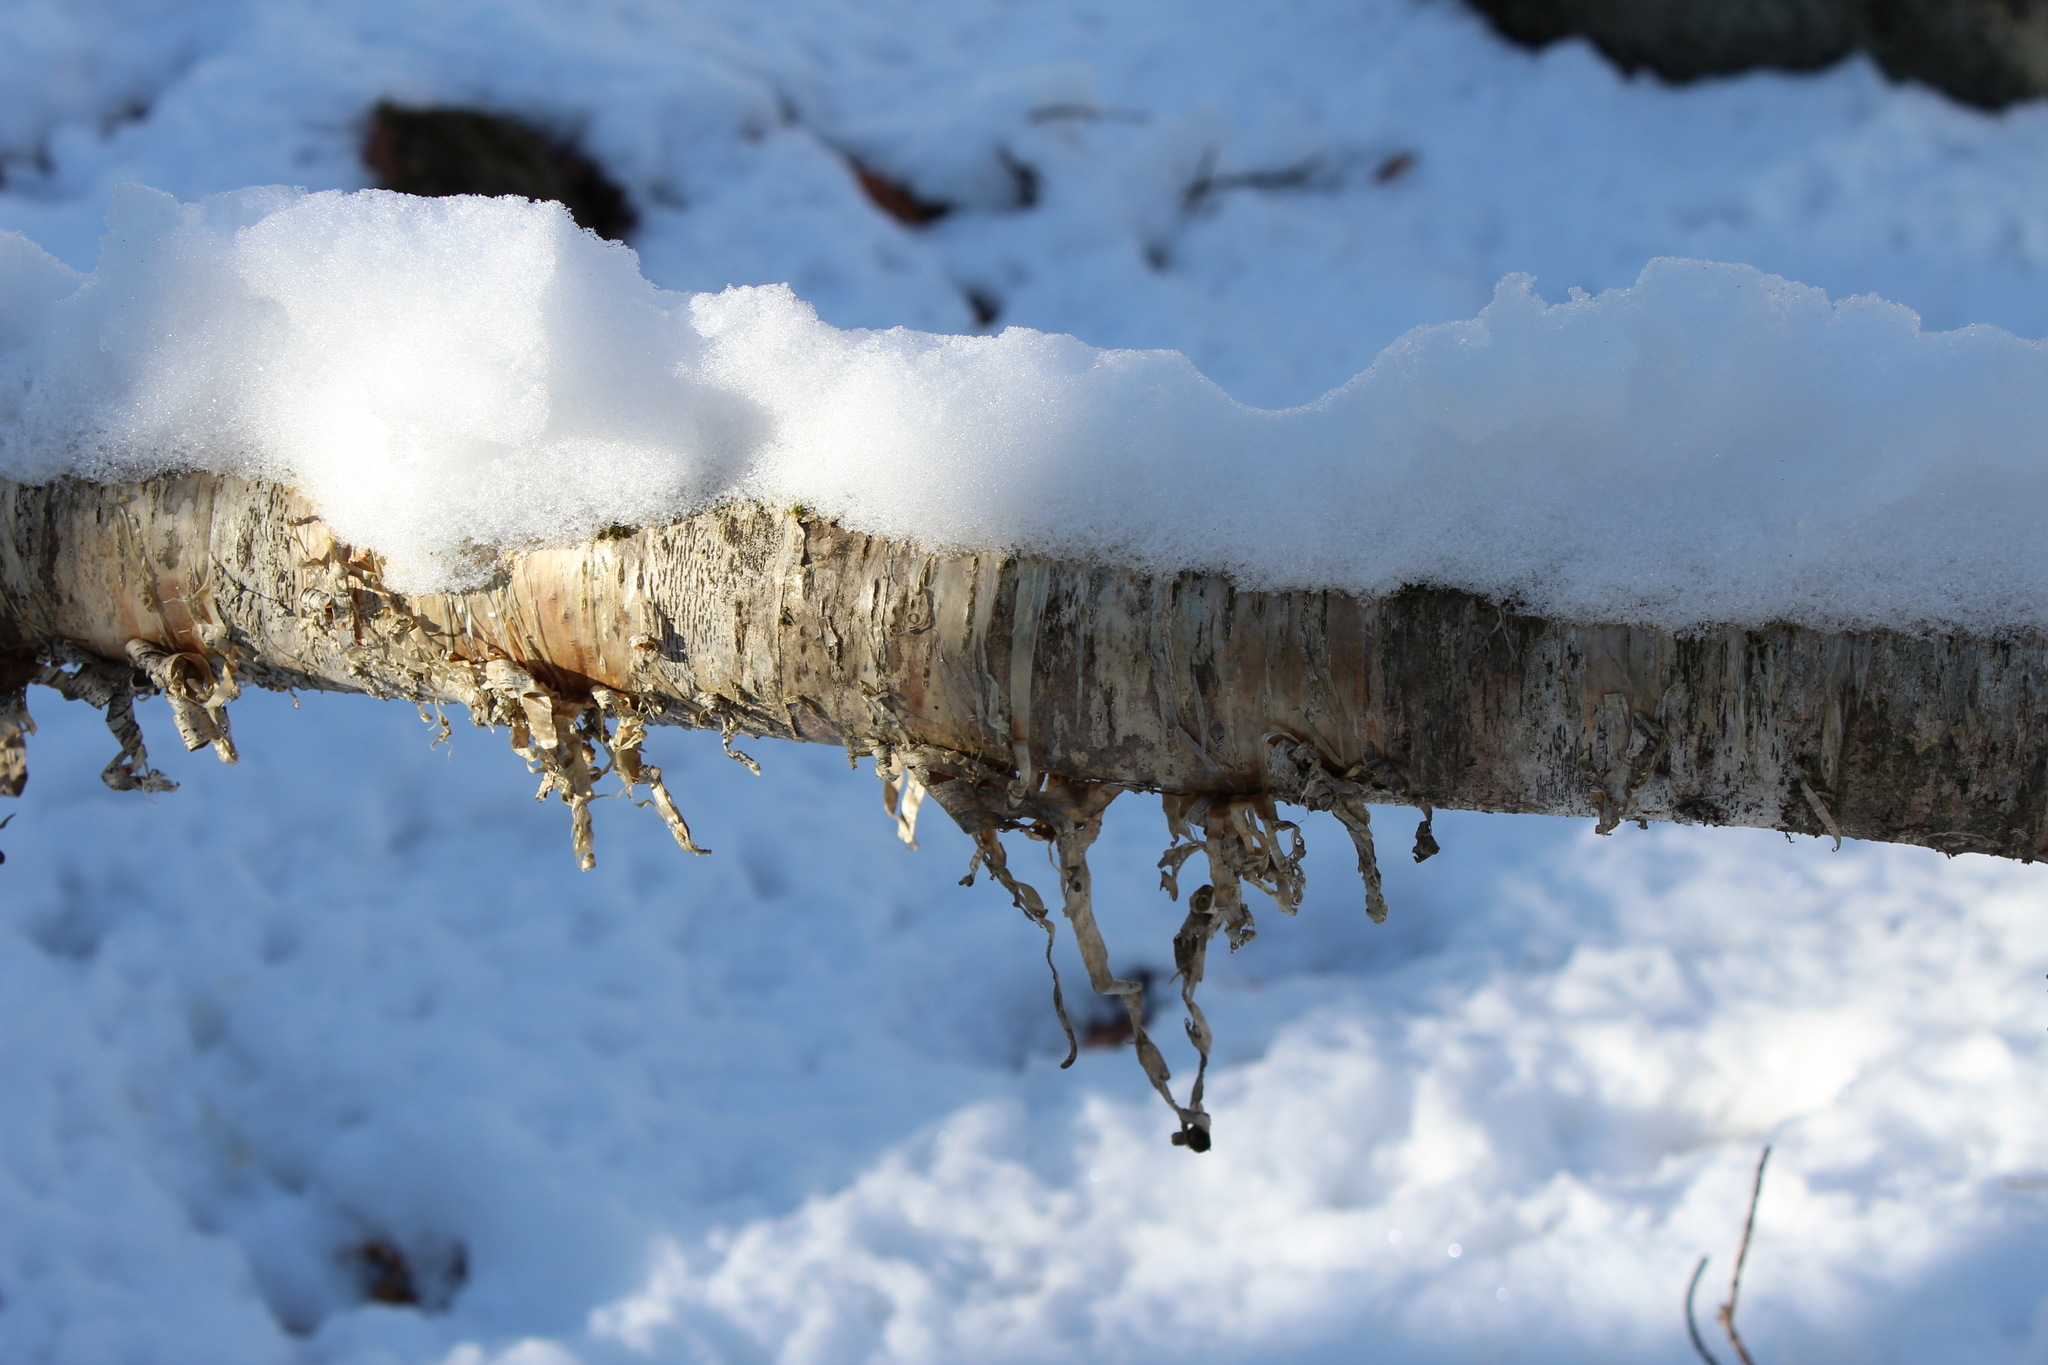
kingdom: Plantae
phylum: Tracheophyta
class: Magnoliopsida
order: Fagales
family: Betulaceae
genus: Betula
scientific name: Betula alleghaniensis
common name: Yellow birch
